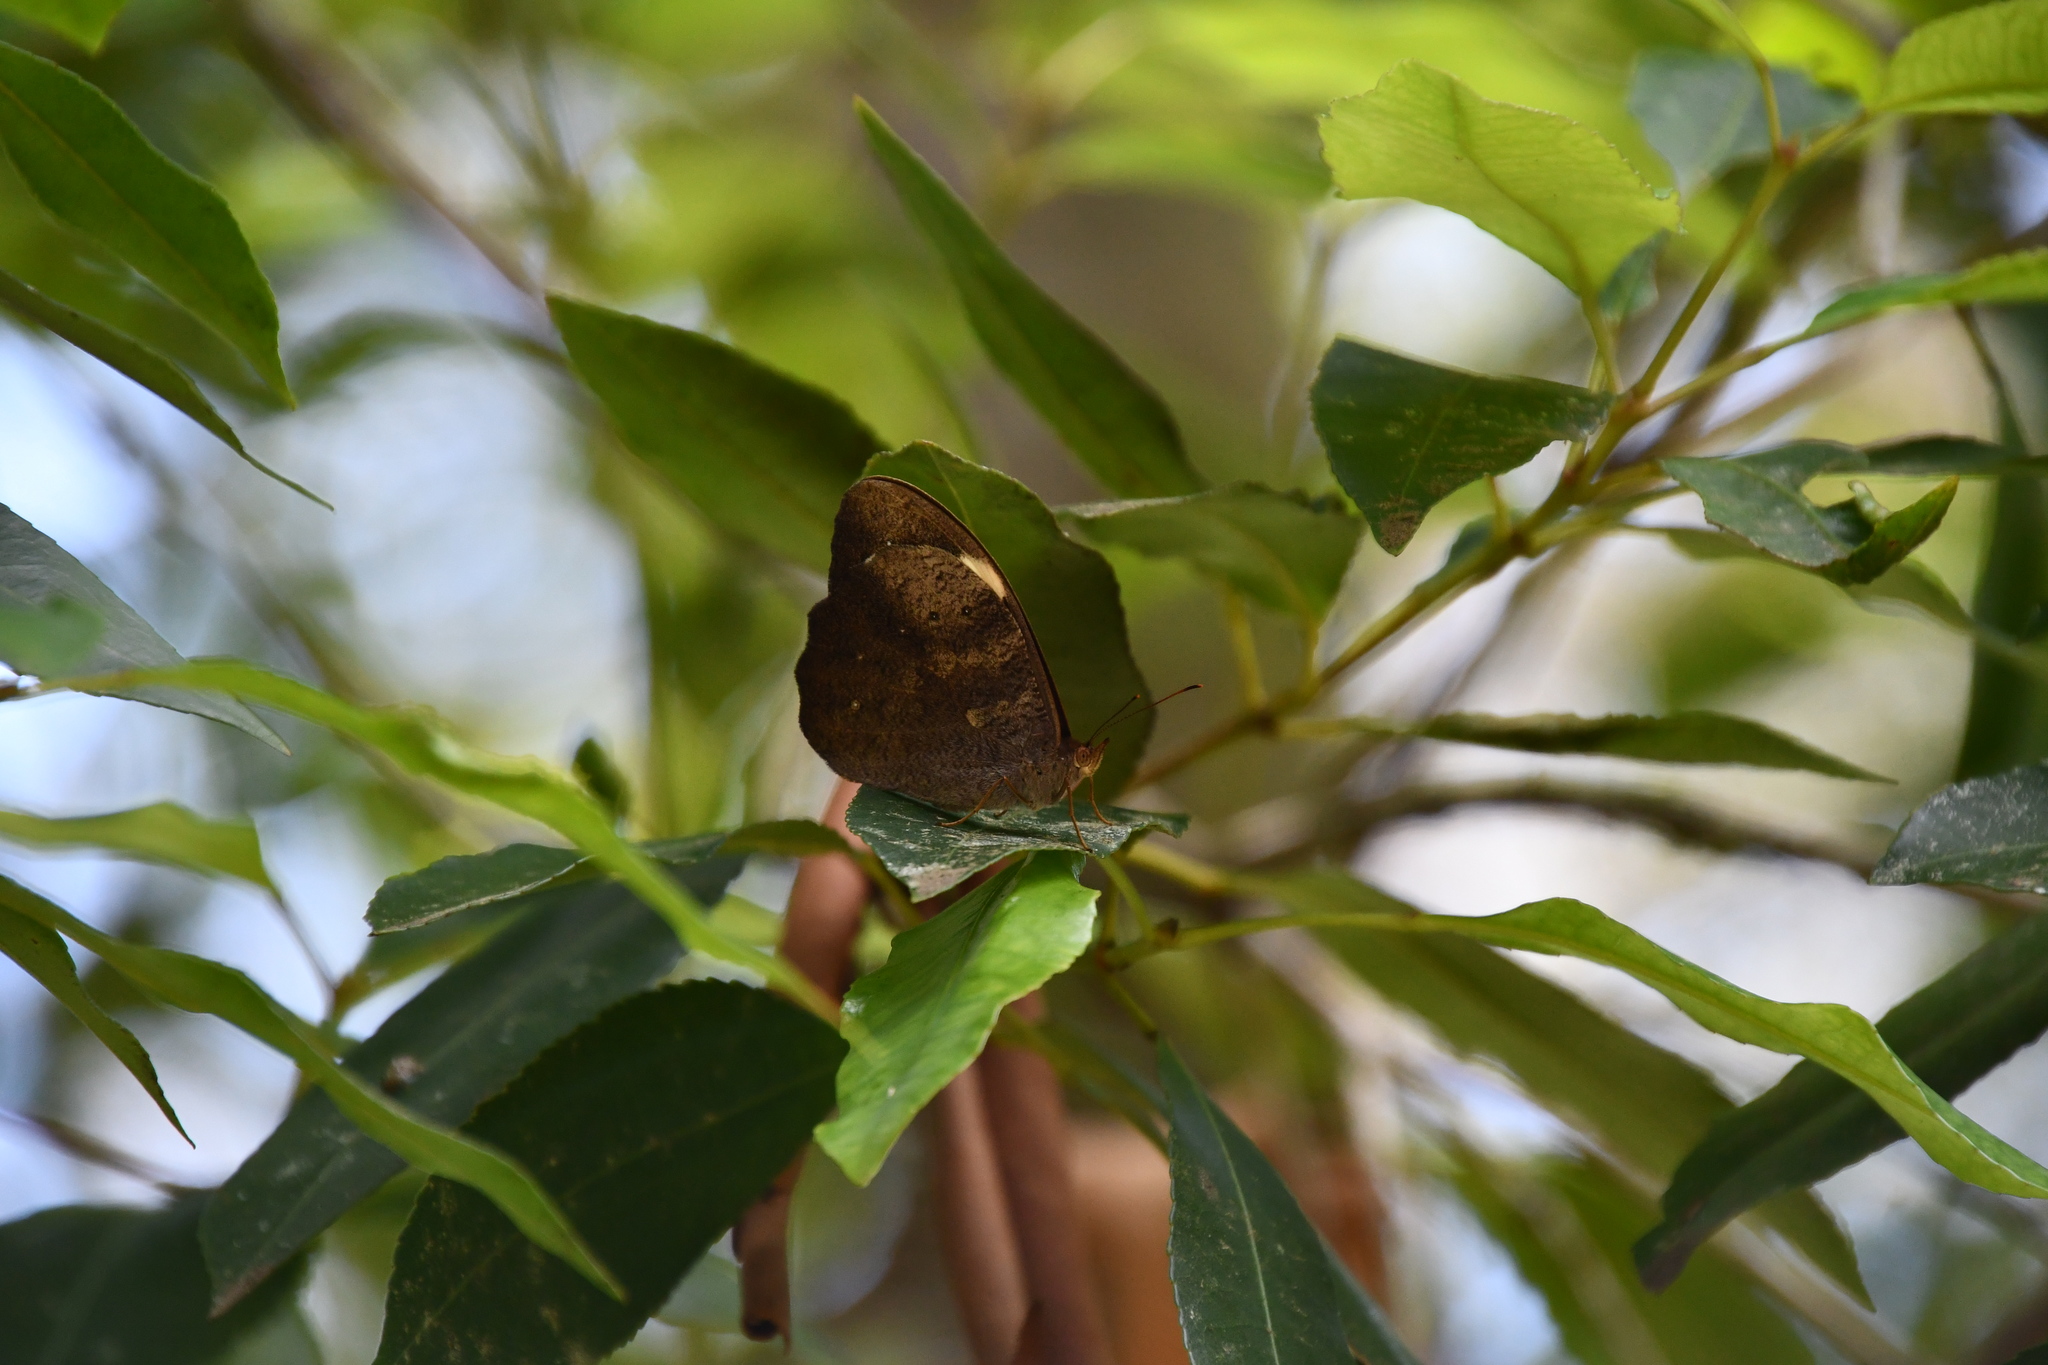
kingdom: Animalia
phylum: Arthropoda
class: Insecta
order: Lepidoptera
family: Nymphalidae
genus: Heteronympha
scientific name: Heteronympha mirifica
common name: Wonder brown
